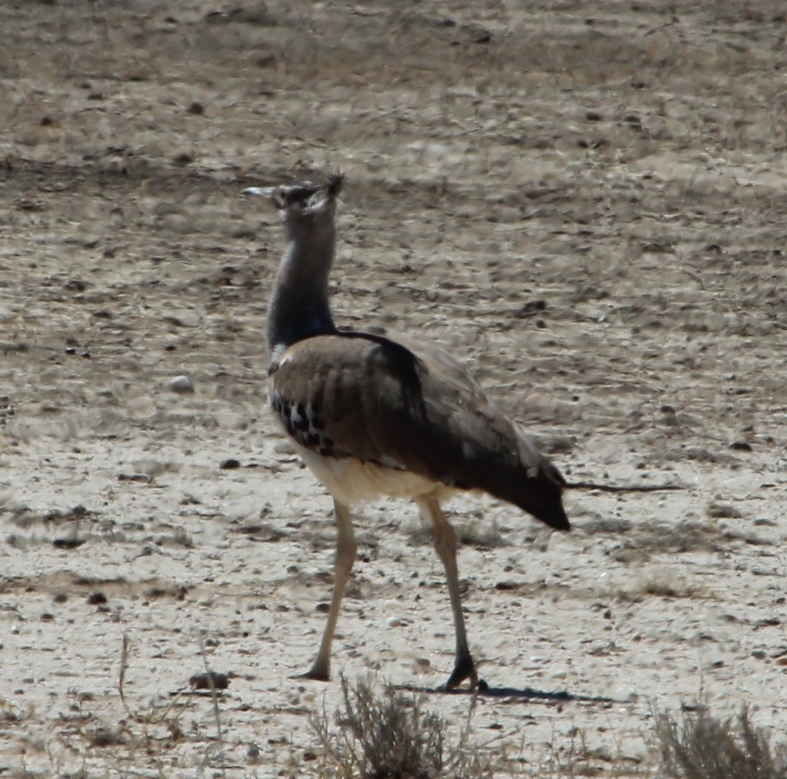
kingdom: Animalia
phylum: Chordata
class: Aves
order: Otidiformes
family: Otididae
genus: Ardeotis
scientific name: Ardeotis kori
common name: Kori bustard
